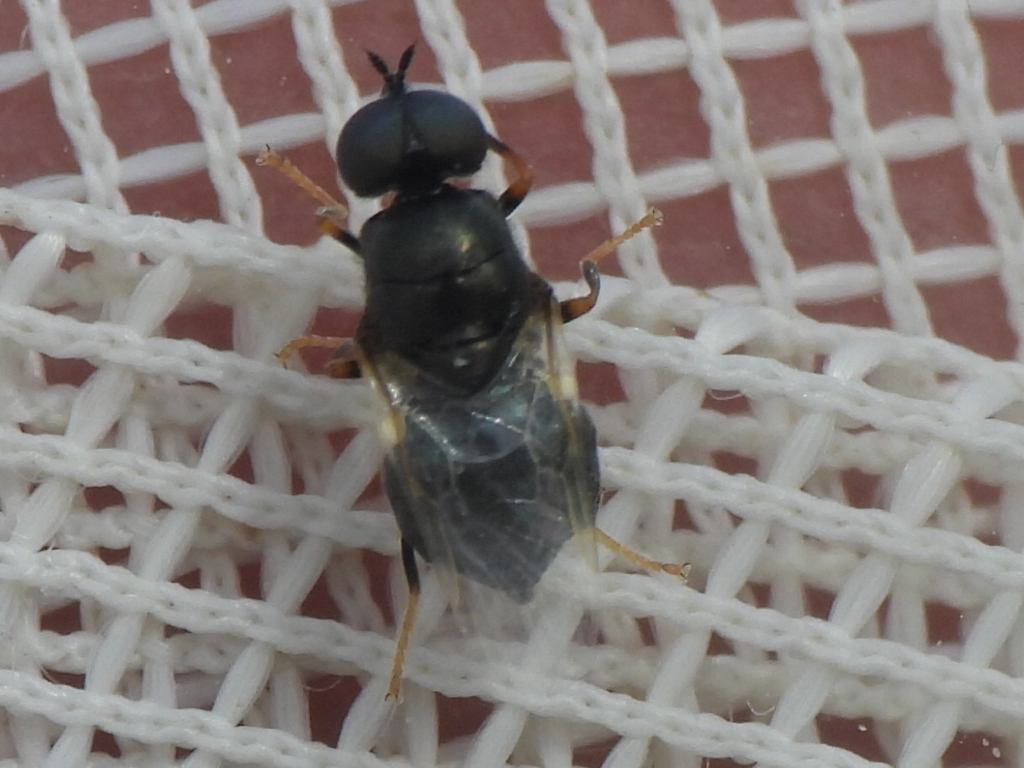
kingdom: Animalia
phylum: Arthropoda
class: Insecta
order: Diptera
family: Stratiomyidae
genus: Nemotelus
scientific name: Nemotelus bruesii
